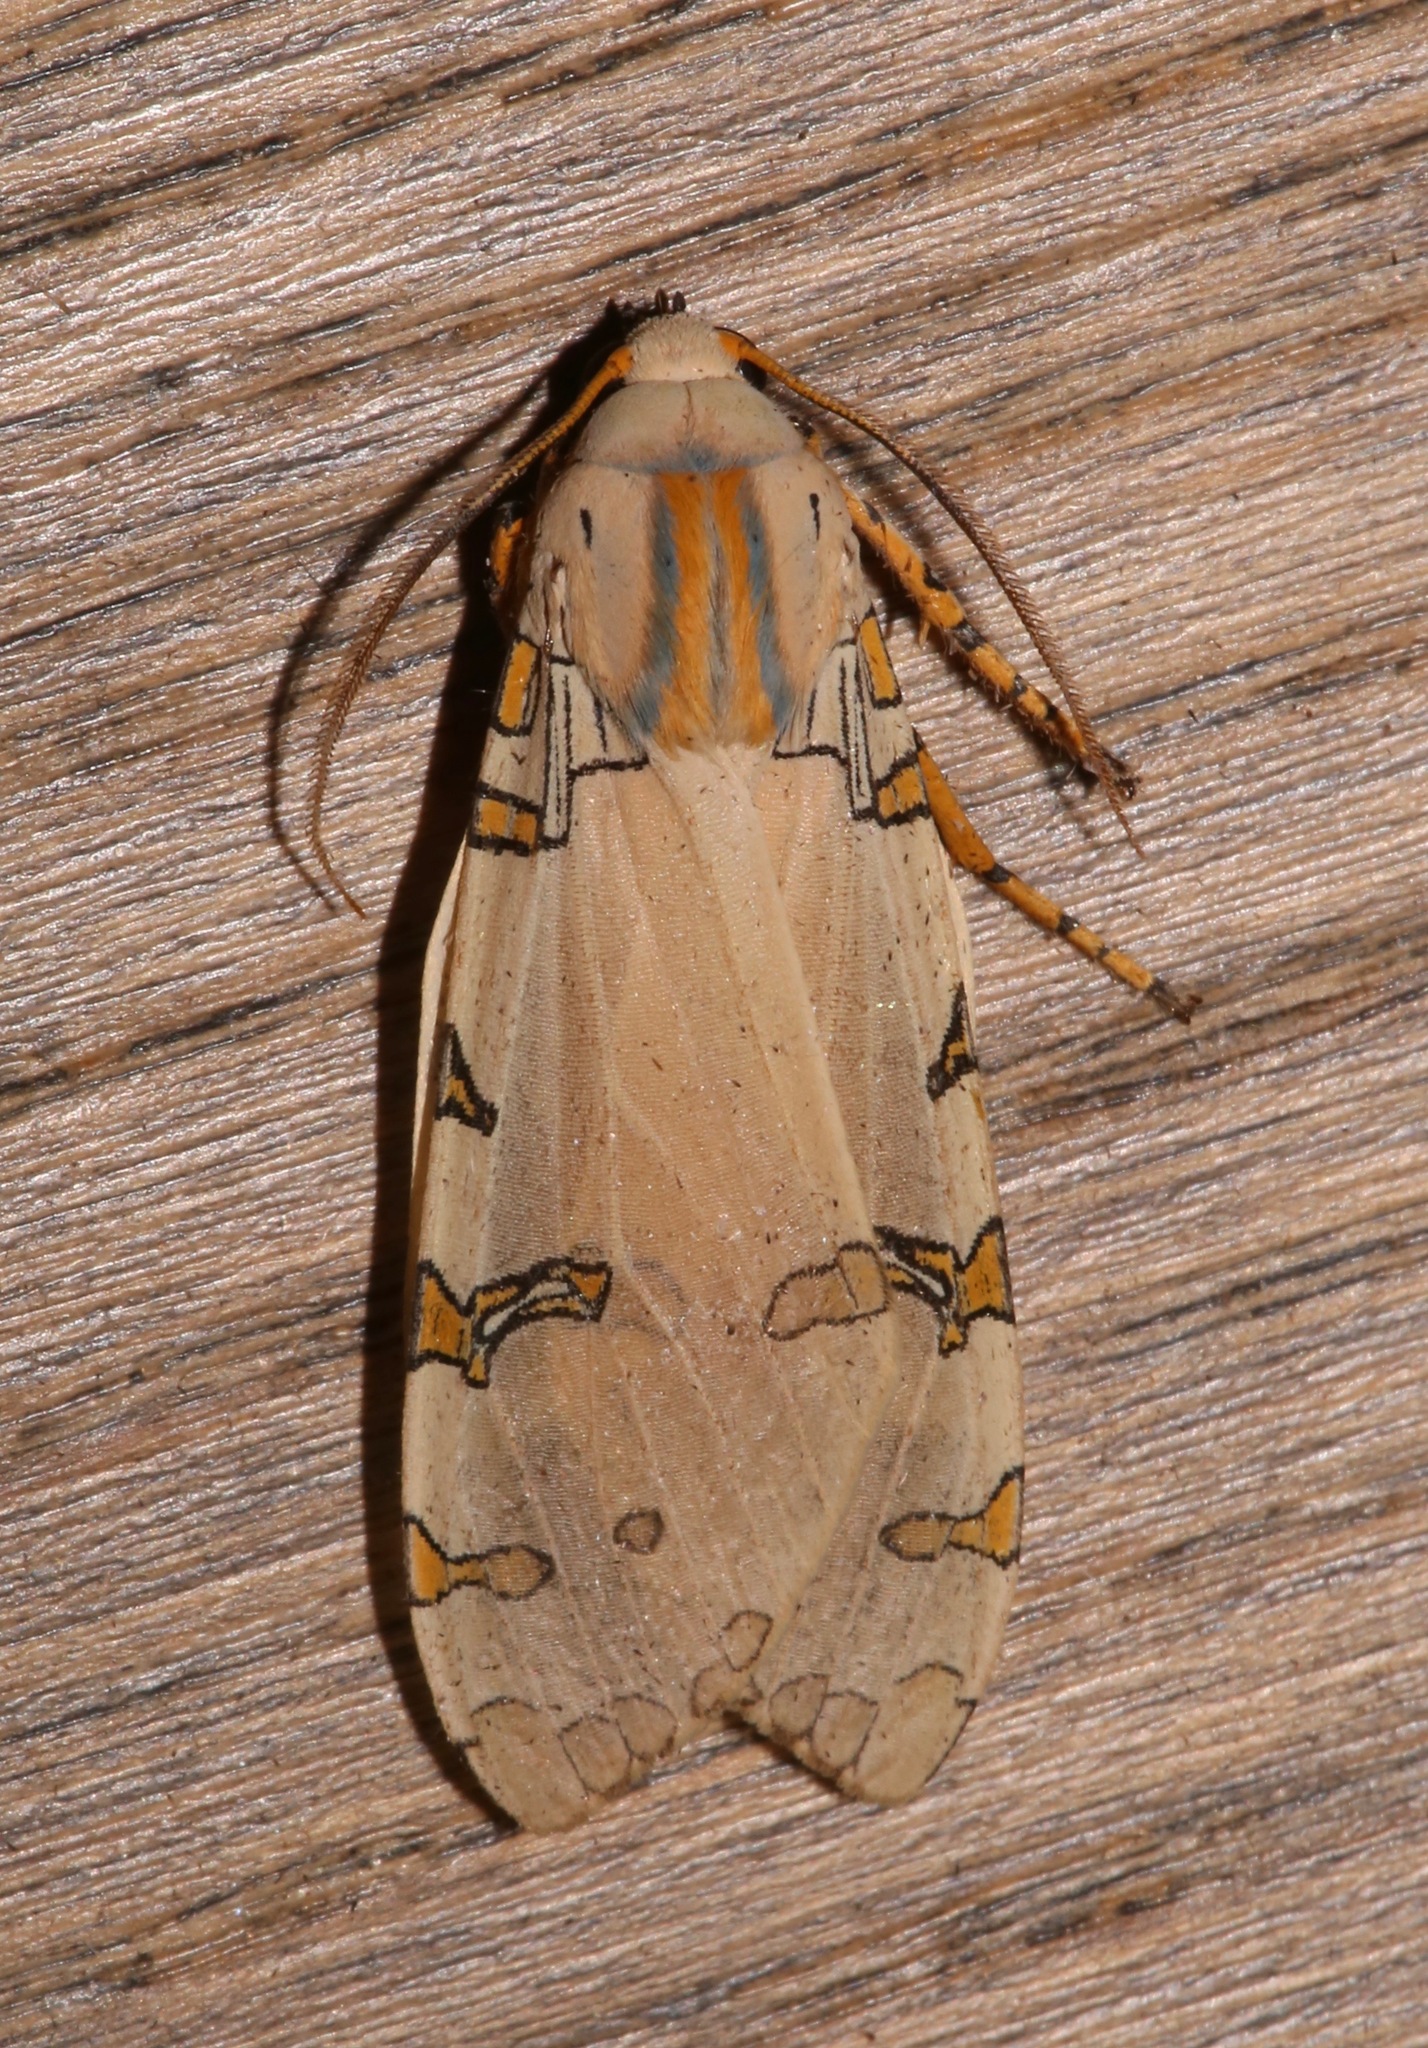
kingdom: Animalia
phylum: Arthropoda
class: Insecta
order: Lepidoptera
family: Erebidae
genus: Halysidota
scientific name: Halysidota davisii
